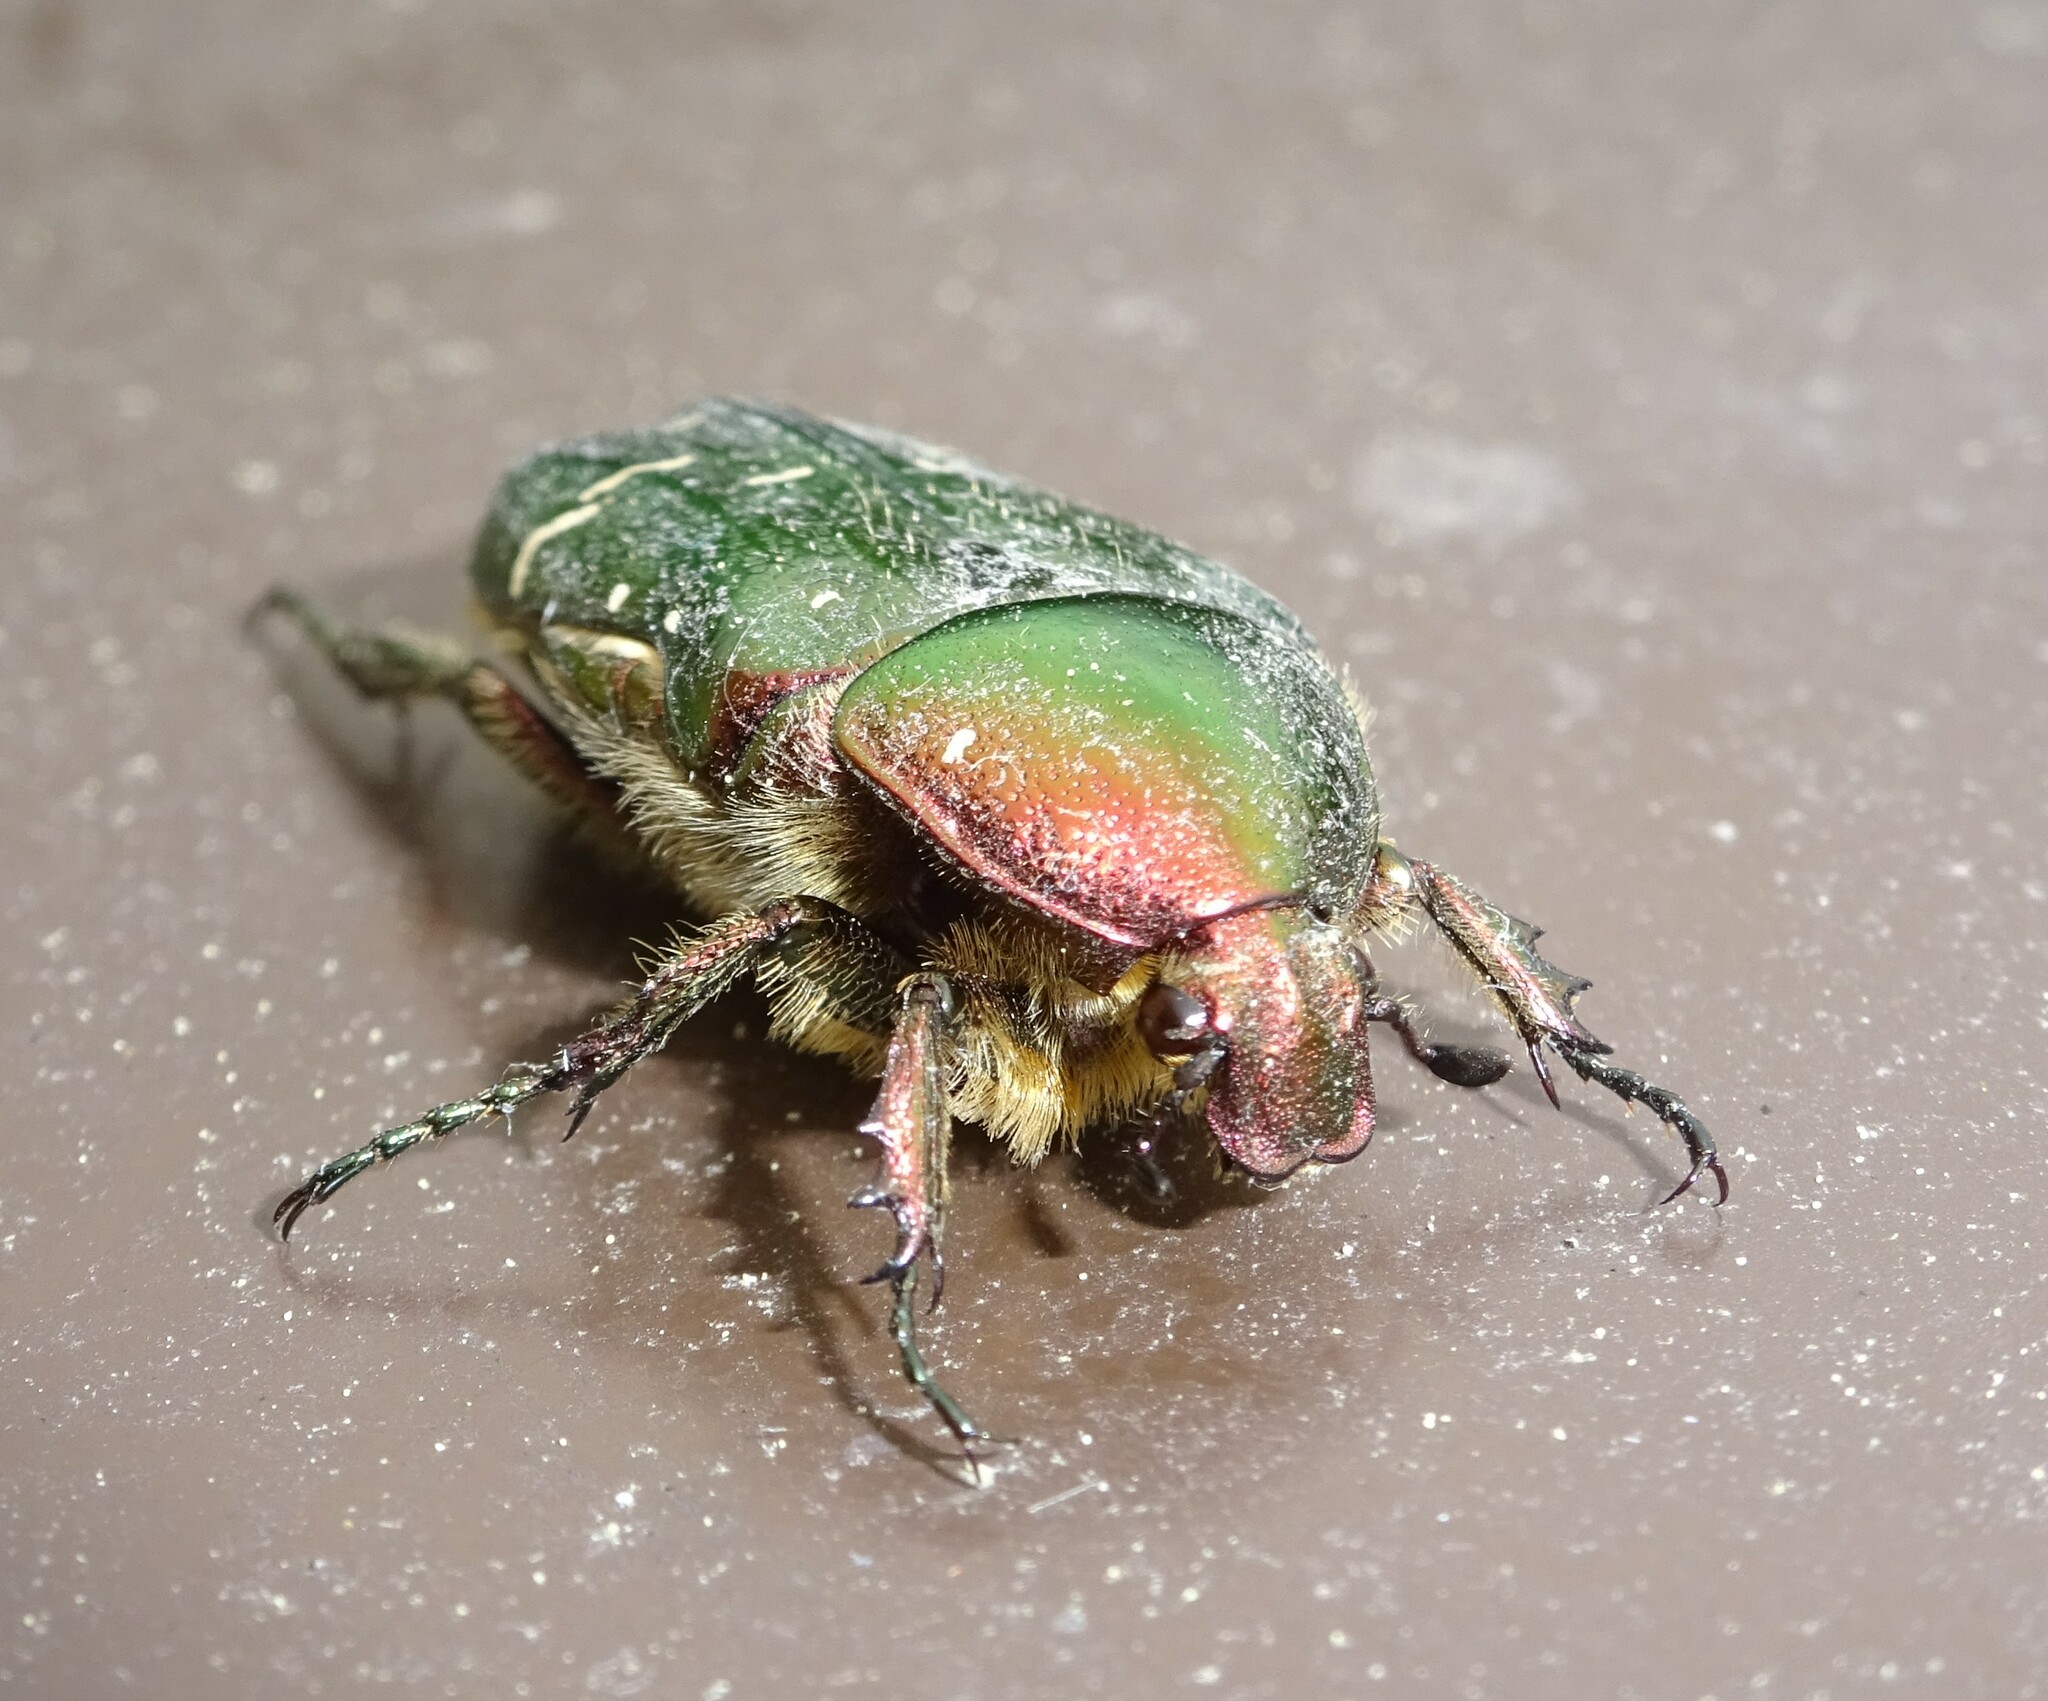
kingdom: Animalia
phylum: Arthropoda
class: Insecta
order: Coleoptera
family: Scarabaeidae
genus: Cetonia
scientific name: Cetonia aurata
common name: Rose chafer
